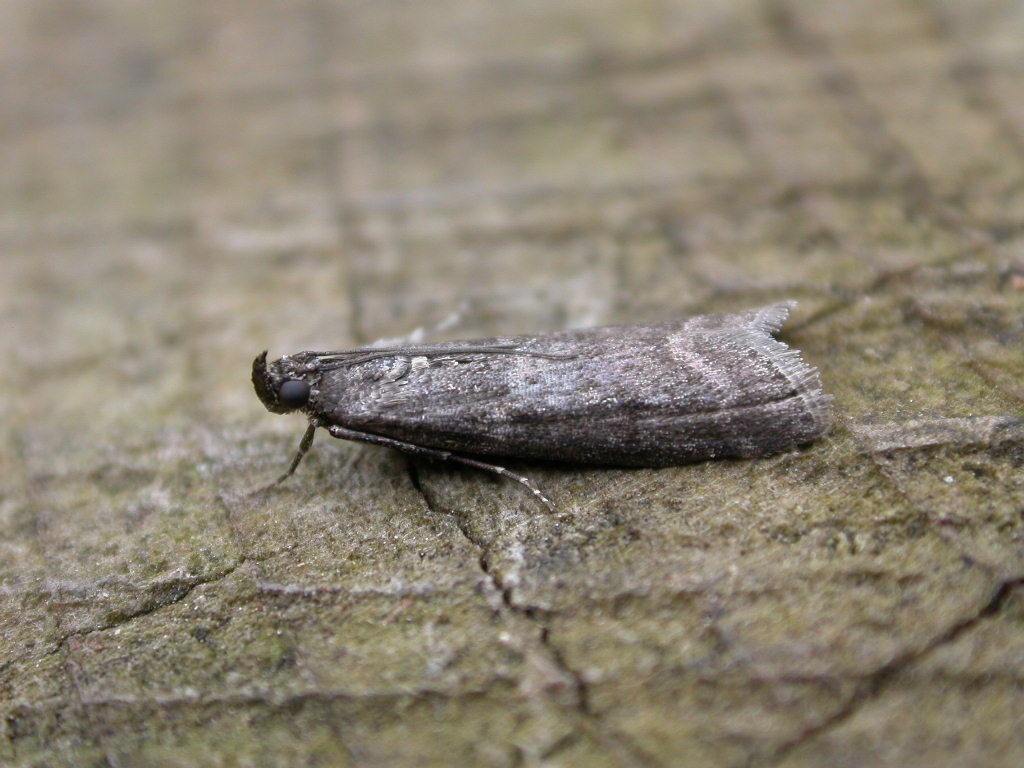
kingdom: Animalia
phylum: Arthropoda
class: Insecta
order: Lepidoptera
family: Pyralidae
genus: Pyla
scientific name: Pyla fusca
